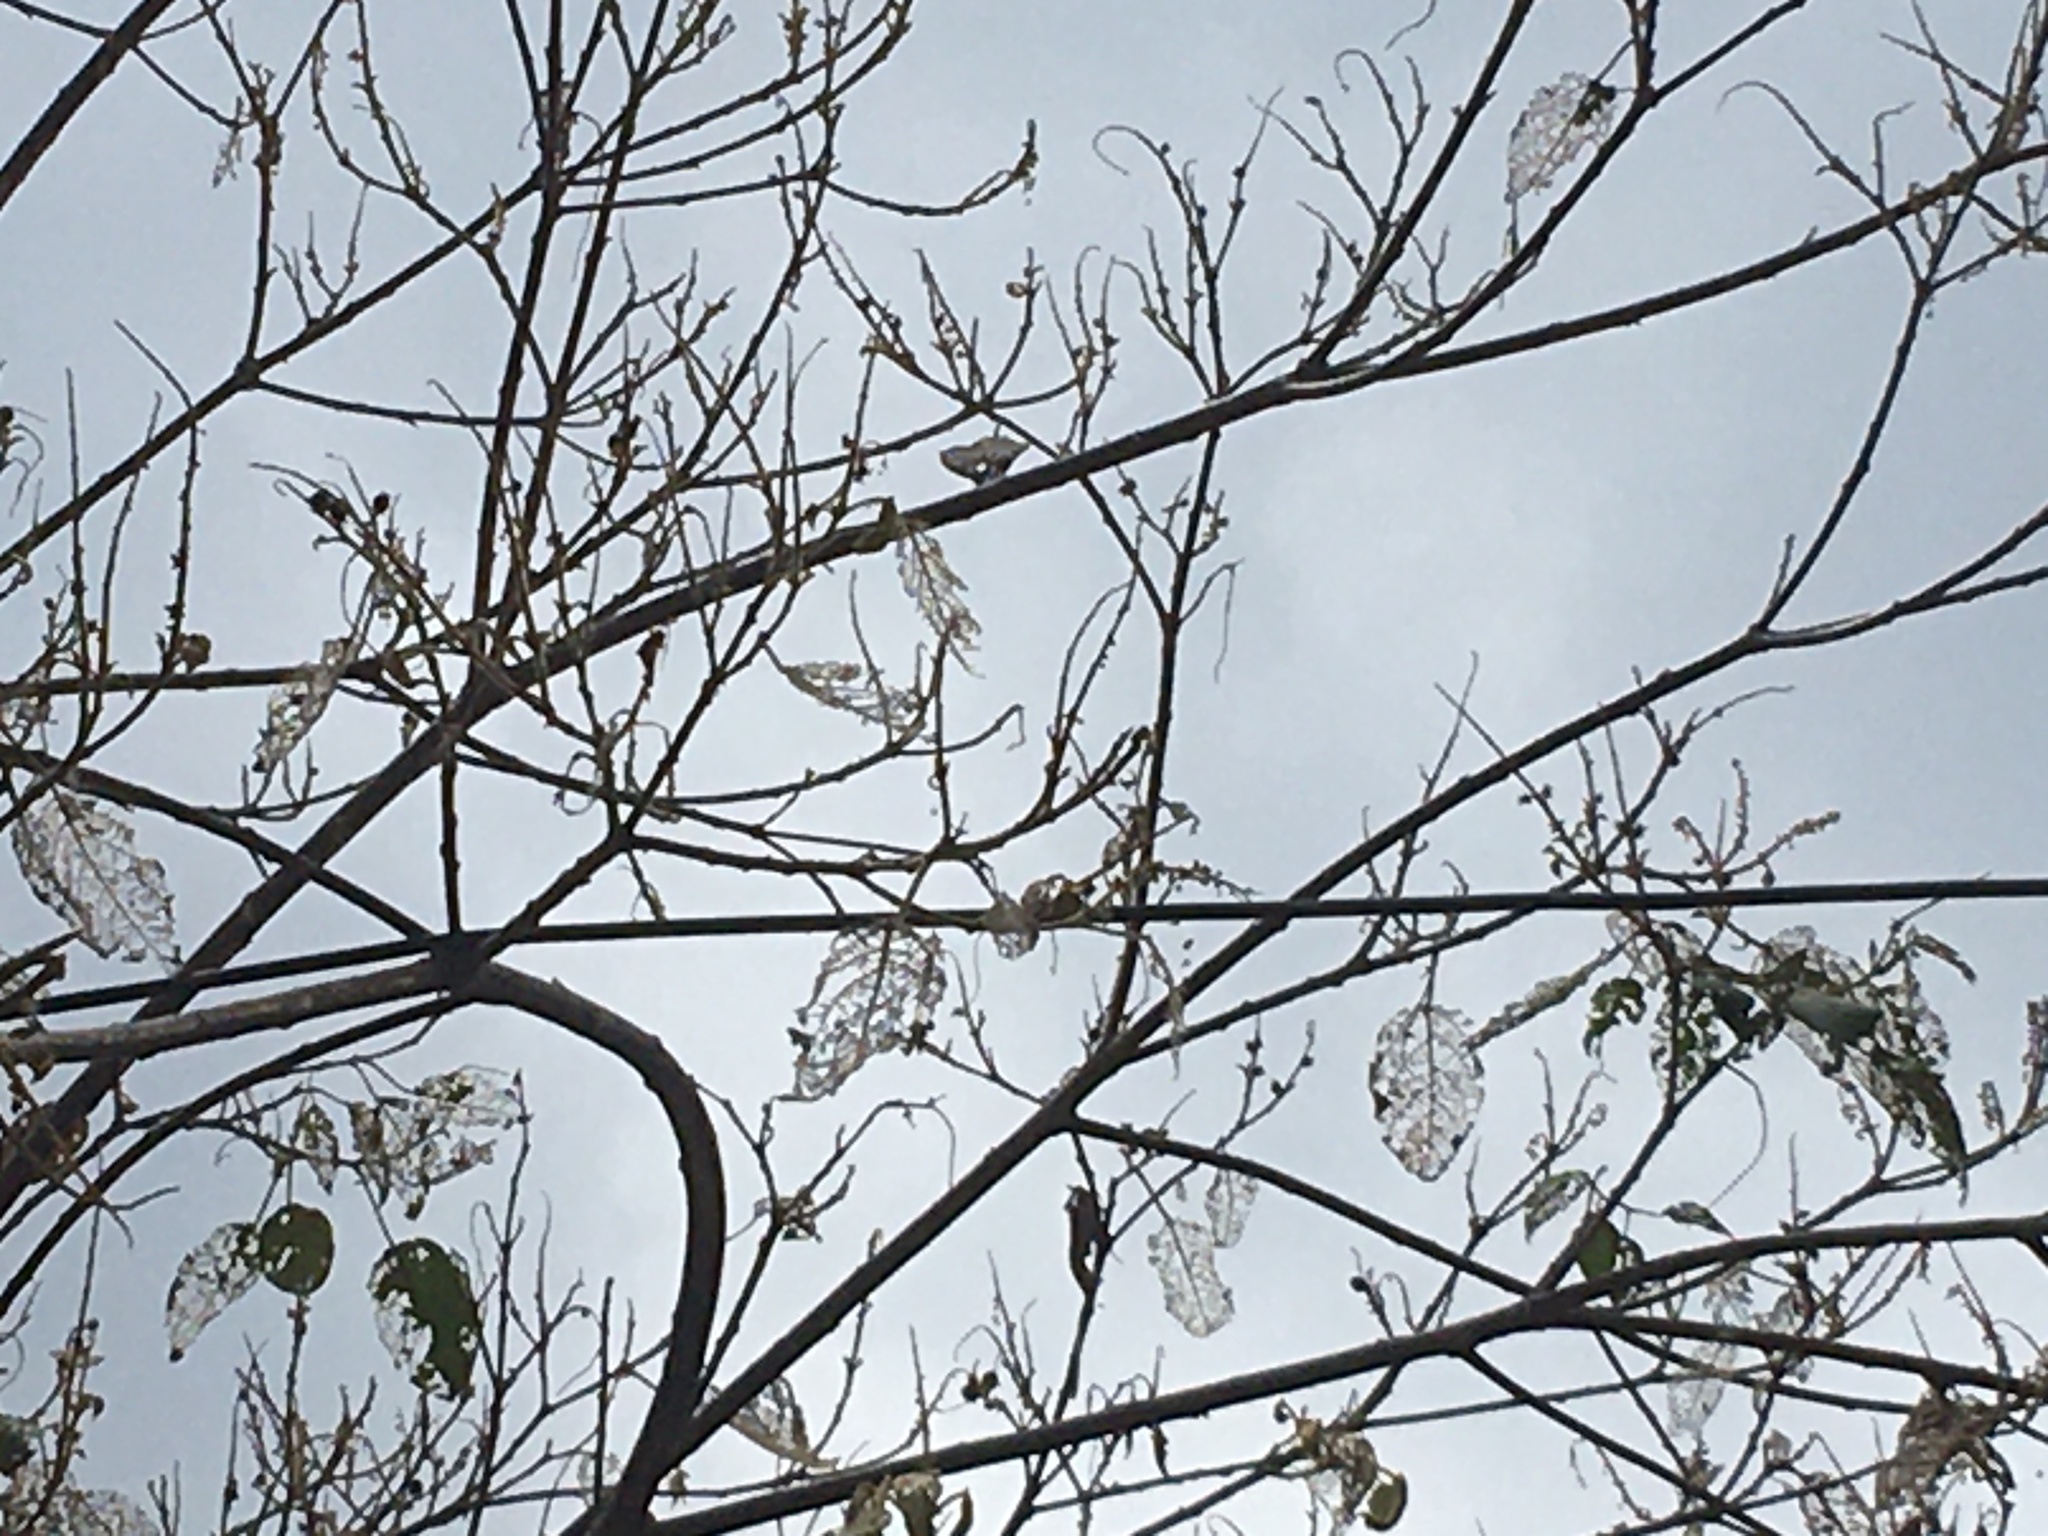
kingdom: Animalia
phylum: Arthropoda
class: Insecta
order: Lepidoptera
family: Geometridae
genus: Sangalopsis
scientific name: Sangalopsis ficifera
